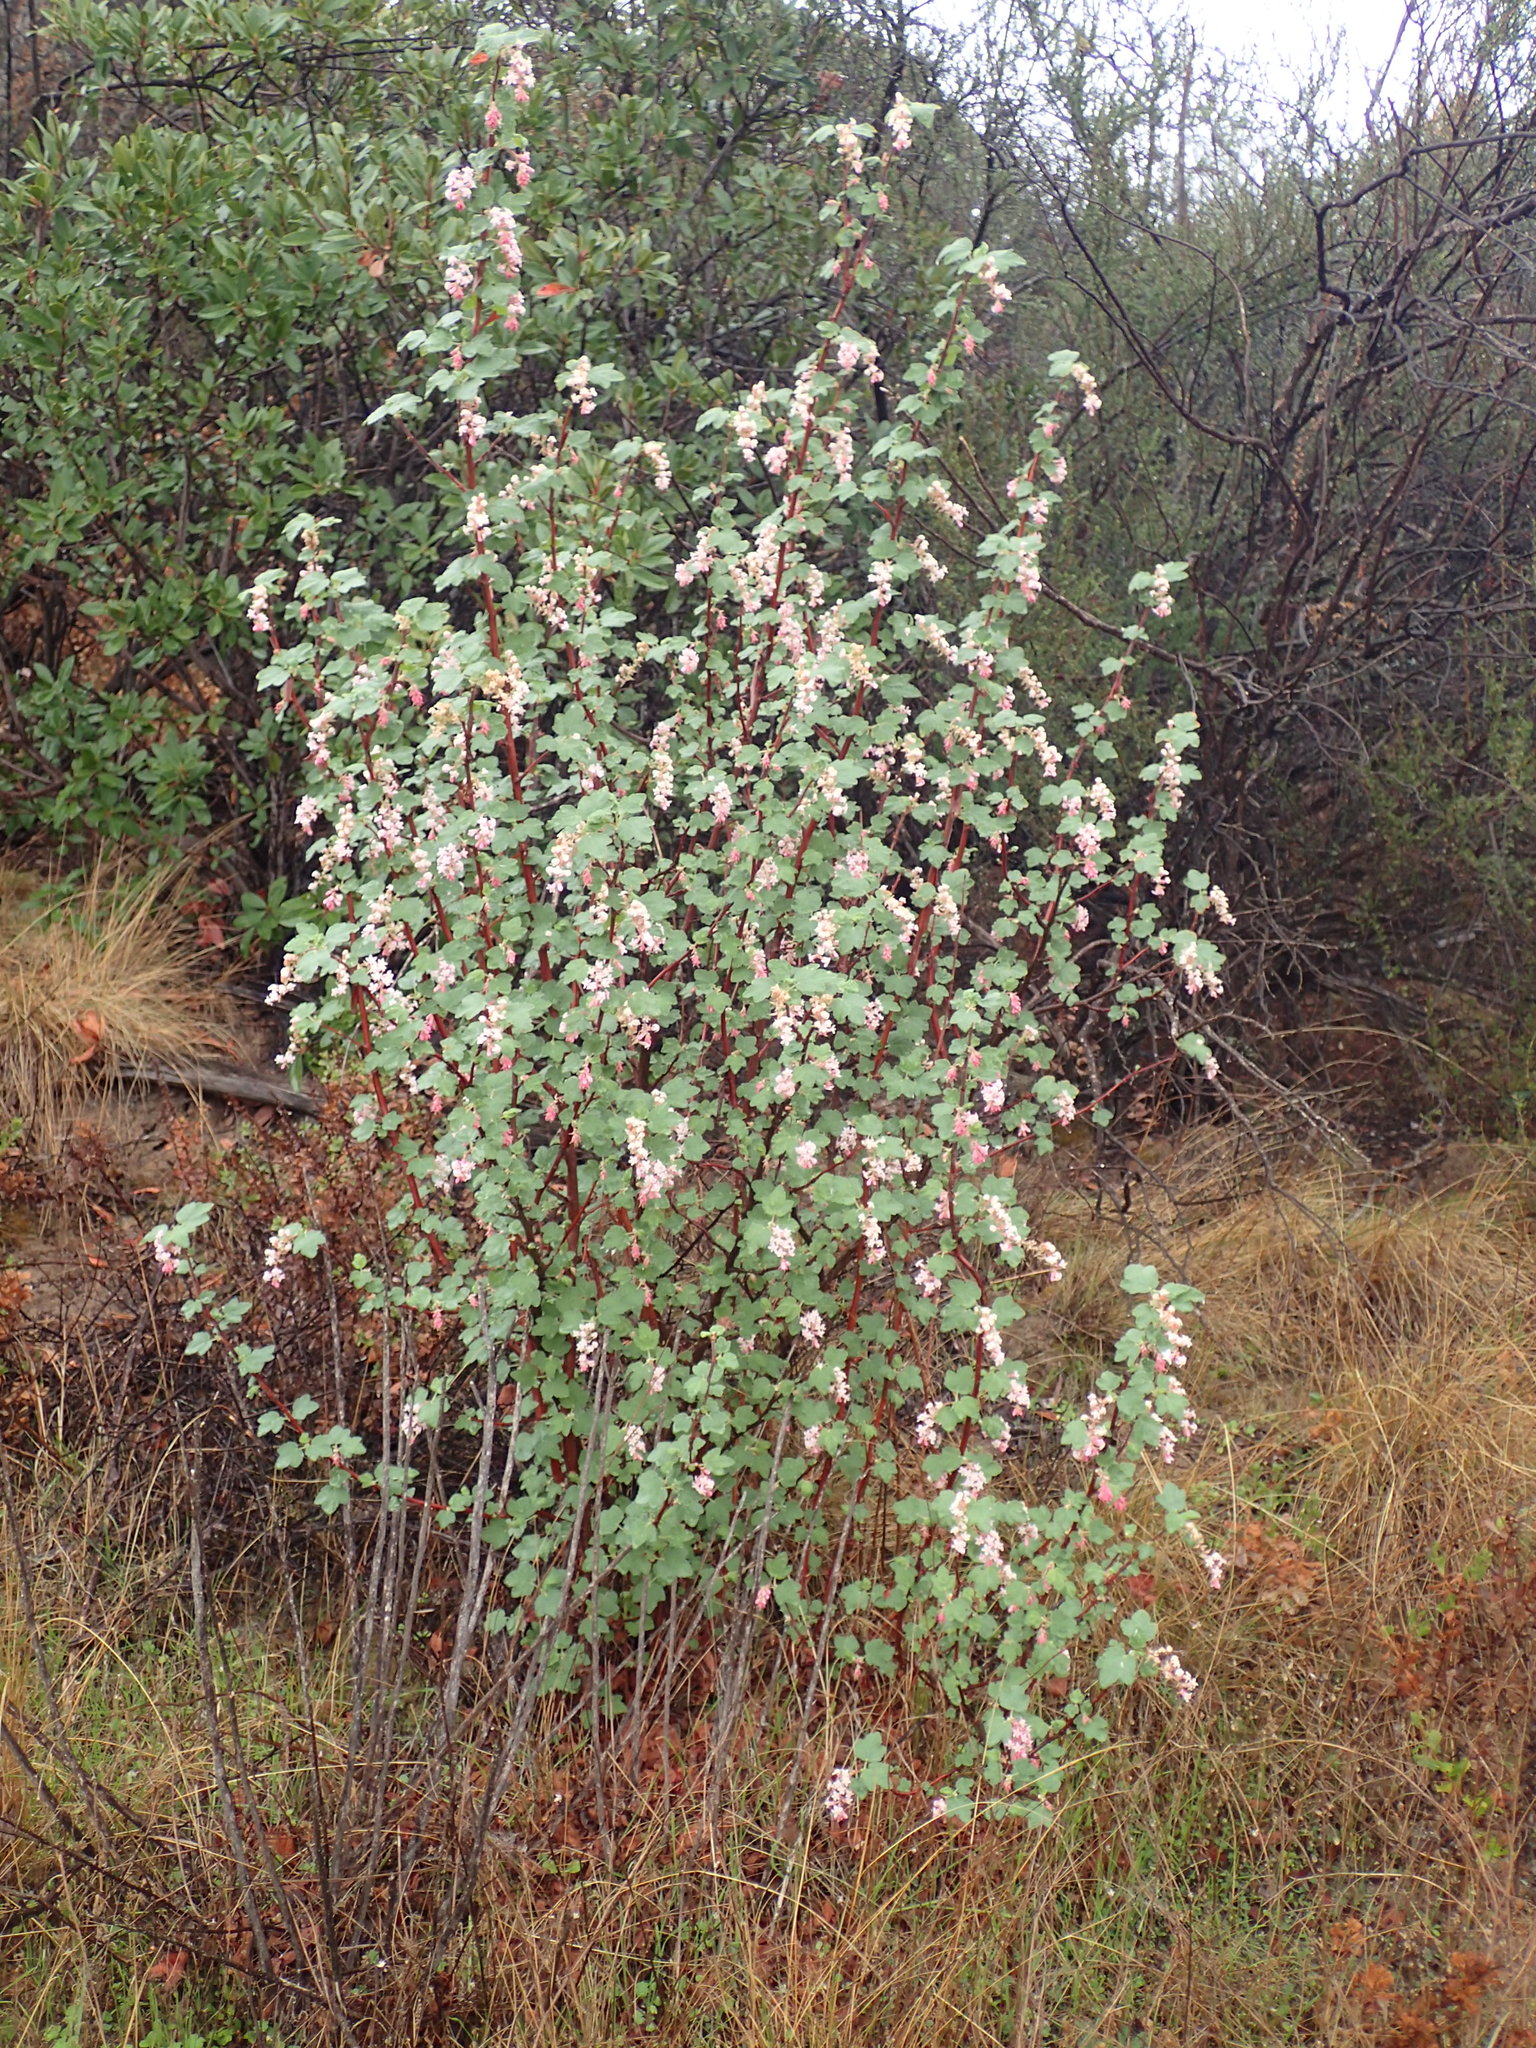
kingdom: Plantae
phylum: Tracheophyta
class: Magnoliopsida
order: Saxifragales
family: Grossulariaceae
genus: Ribes
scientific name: Ribes malvaceum
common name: Chaparral currant
